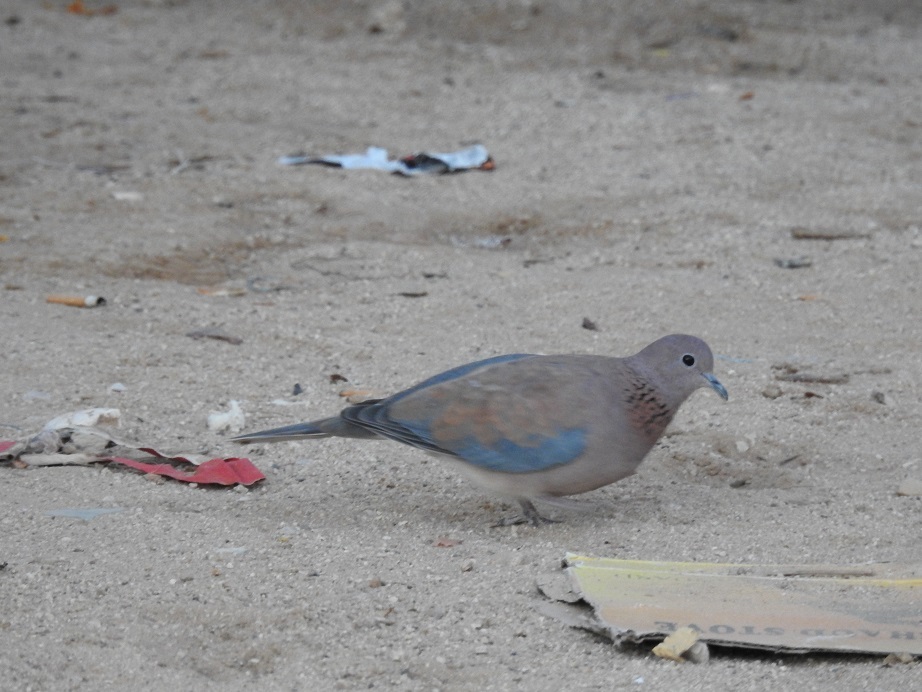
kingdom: Animalia
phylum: Chordata
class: Aves
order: Columbiformes
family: Columbidae
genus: Spilopelia
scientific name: Spilopelia senegalensis
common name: Laughing dove
